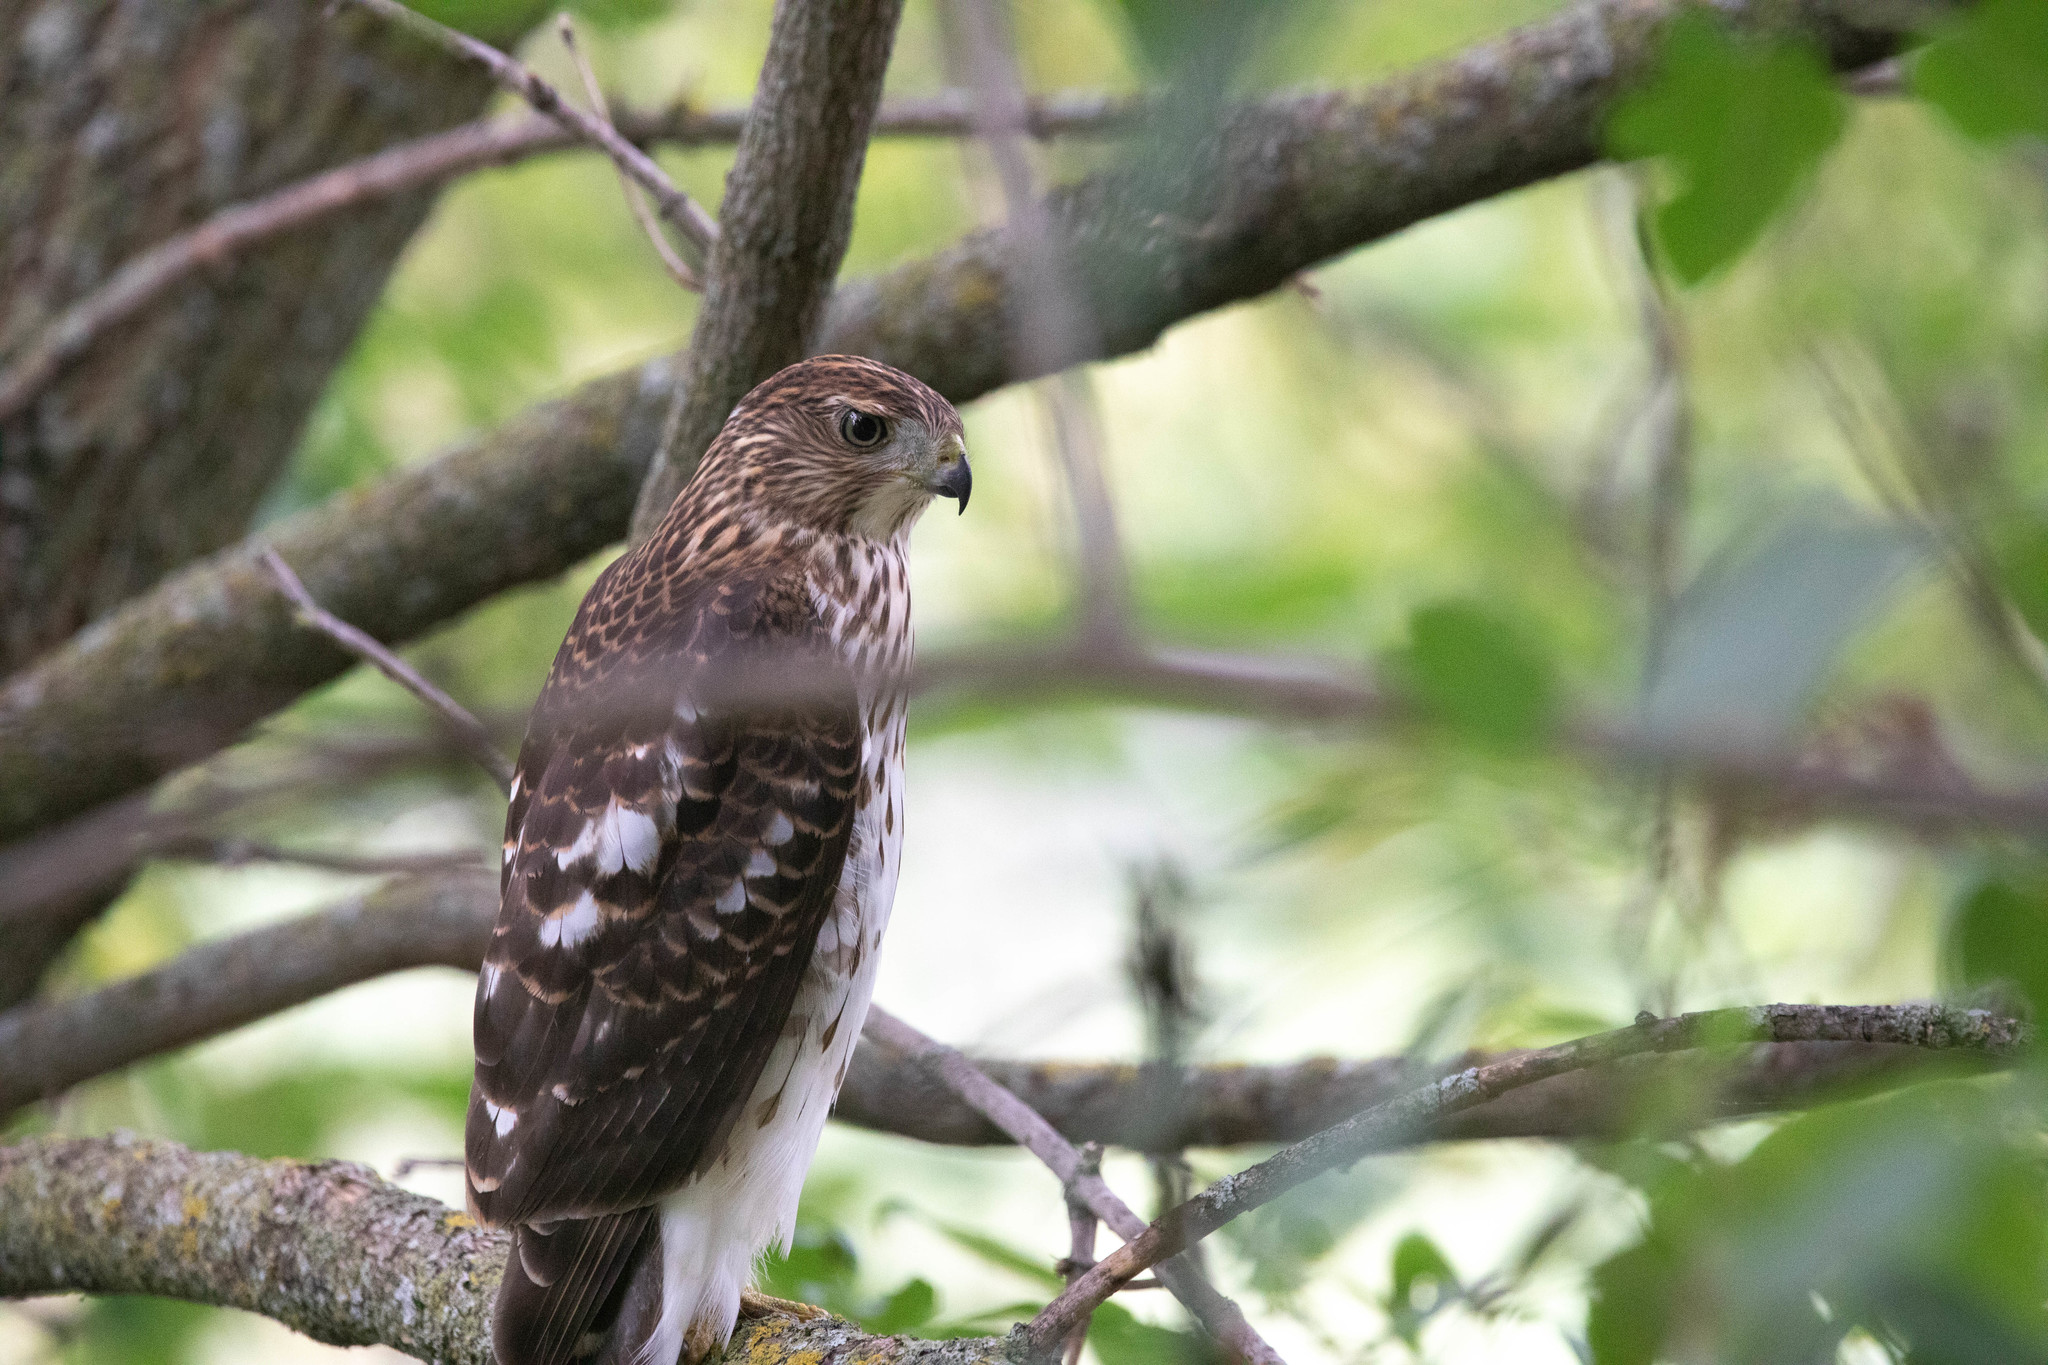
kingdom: Animalia
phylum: Chordata
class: Aves
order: Accipitriformes
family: Accipitridae
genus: Accipiter
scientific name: Accipiter cooperii
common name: Cooper's hawk
